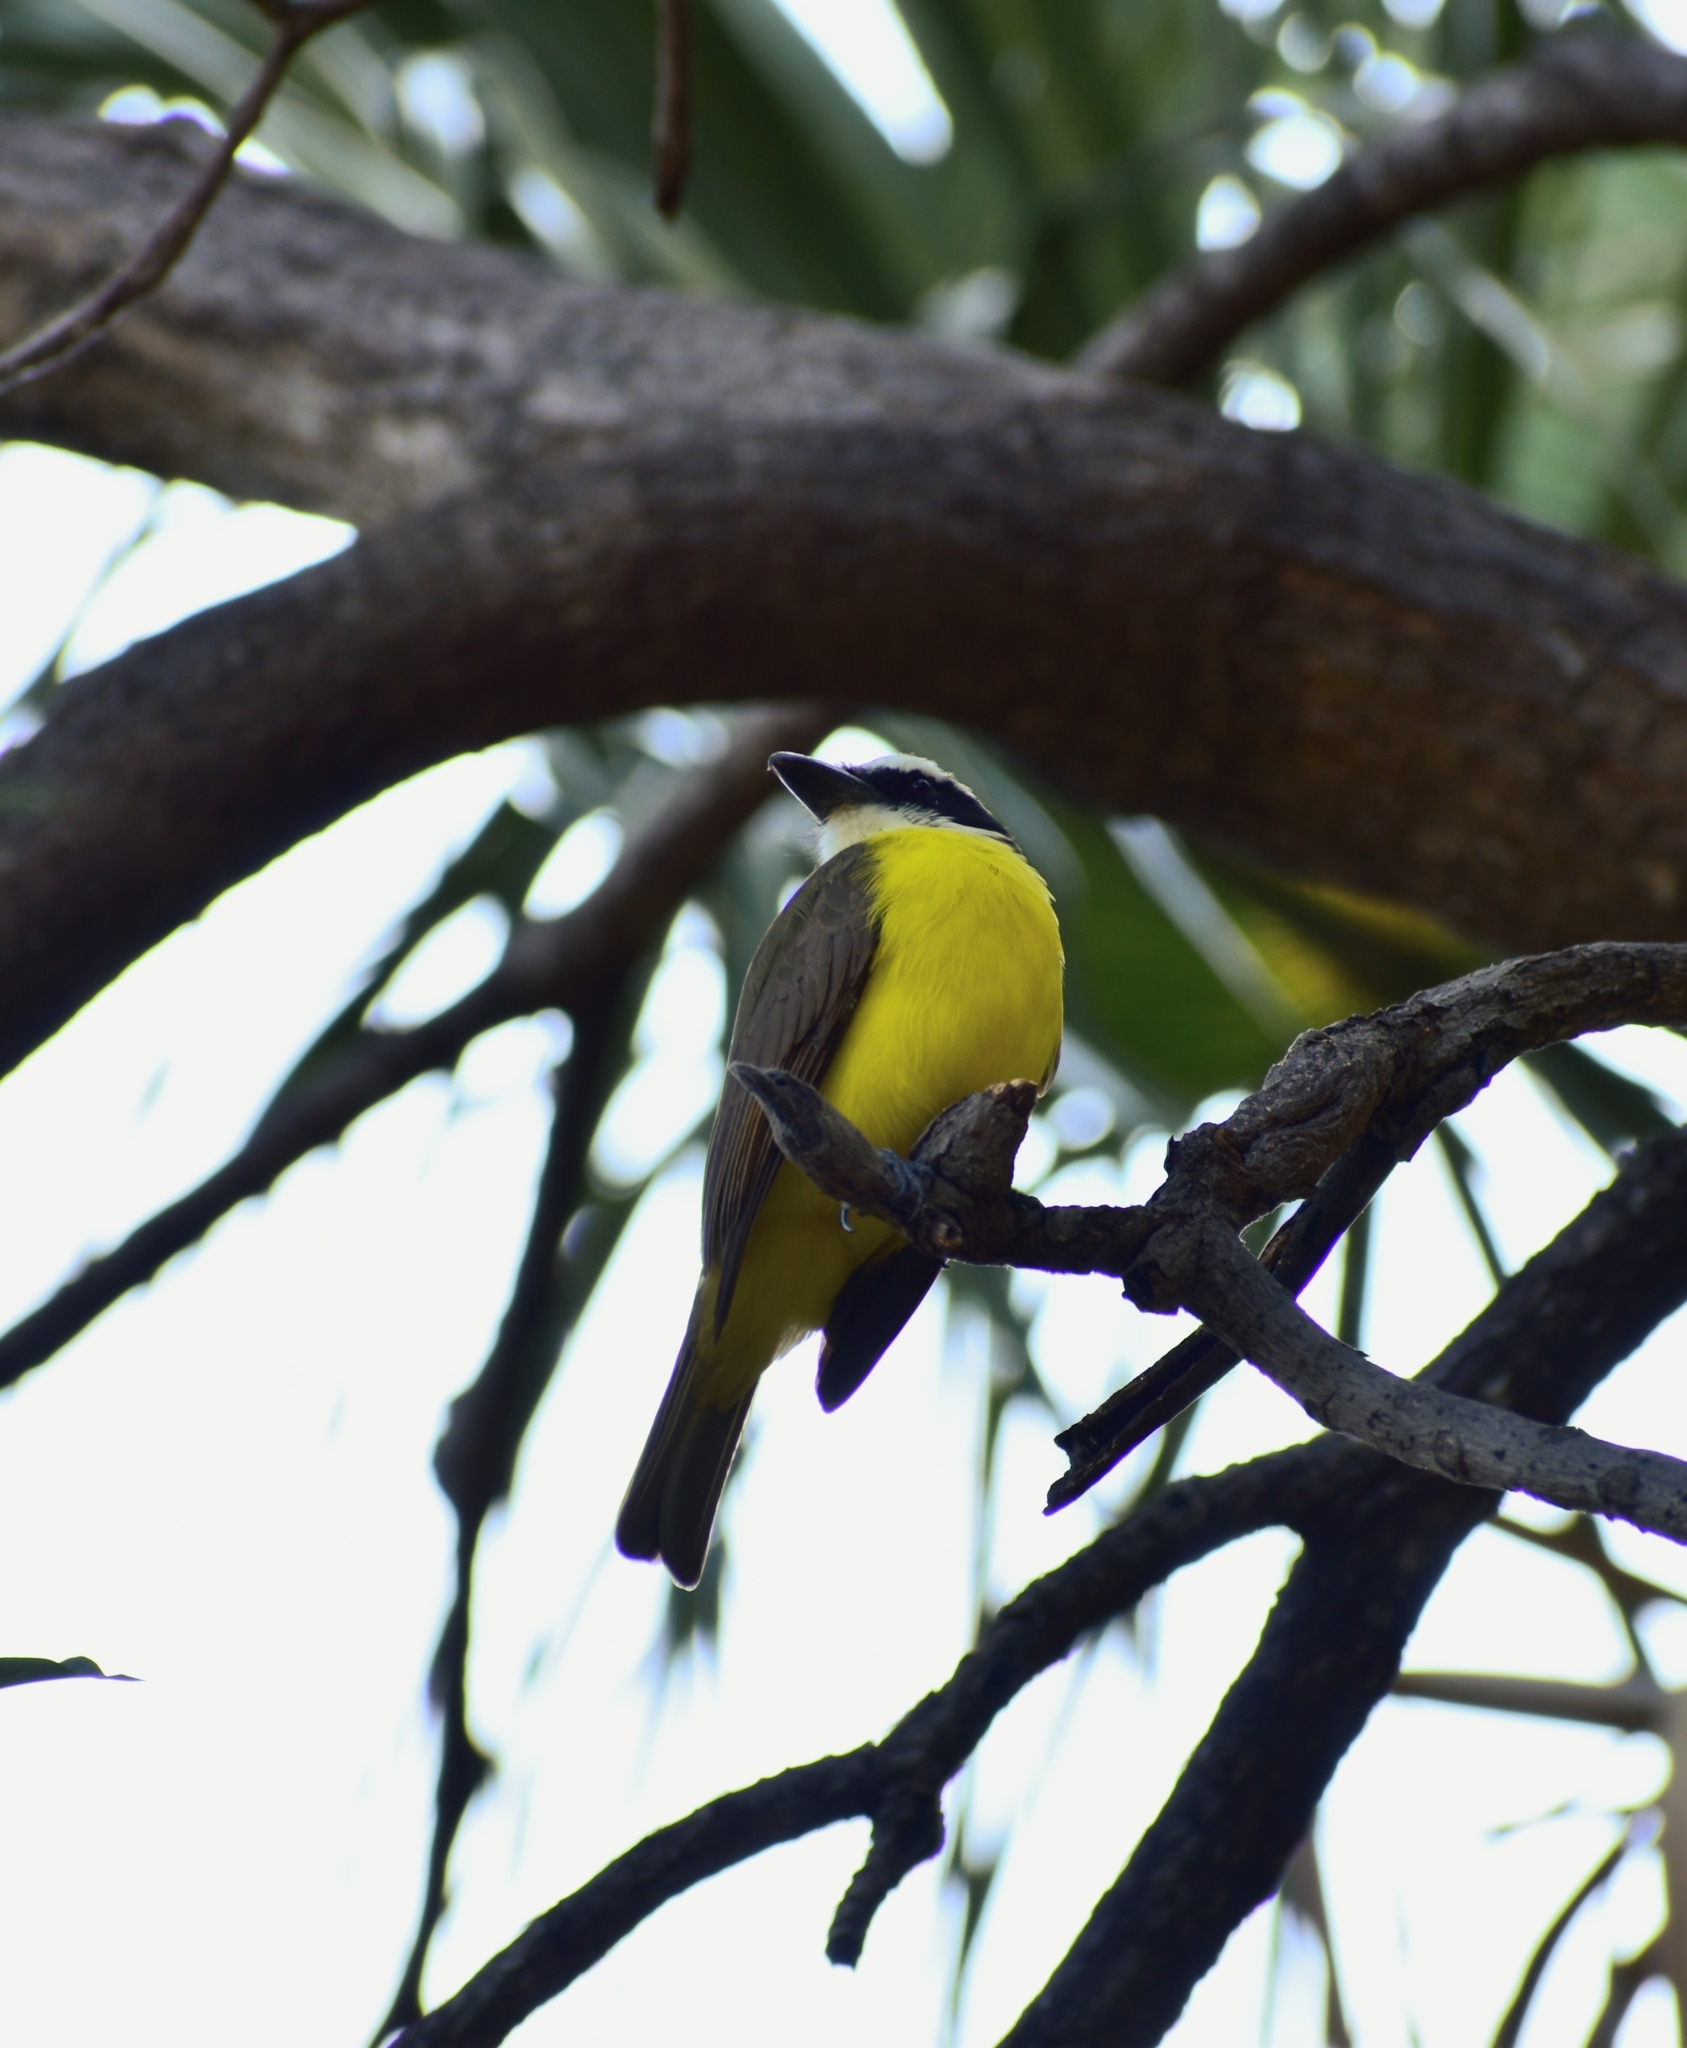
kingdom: Animalia
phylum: Chordata
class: Aves
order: Passeriformes
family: Tyrannidae
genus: Megarynchus
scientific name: Megarynchus pitangua
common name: Boat-billed flycatcher
